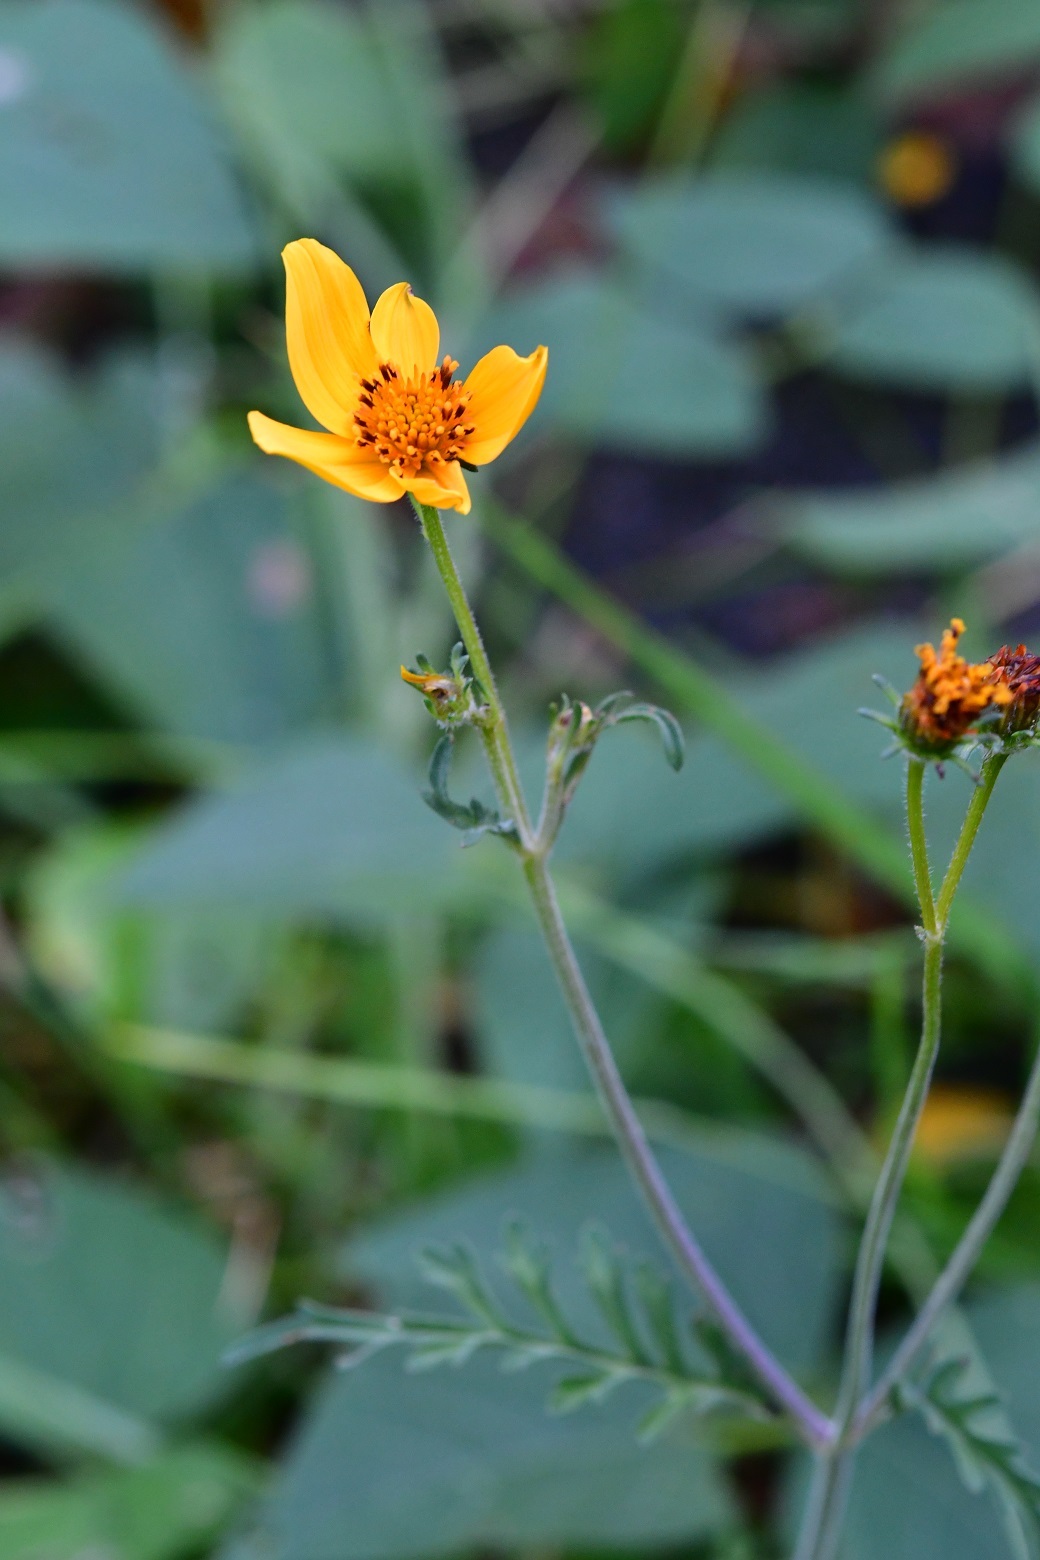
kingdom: Plantae
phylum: Tracheophyta
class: Magnoliopsida
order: Asterales
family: Asteraceae
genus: Bidens
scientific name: Bidens triplinervia
